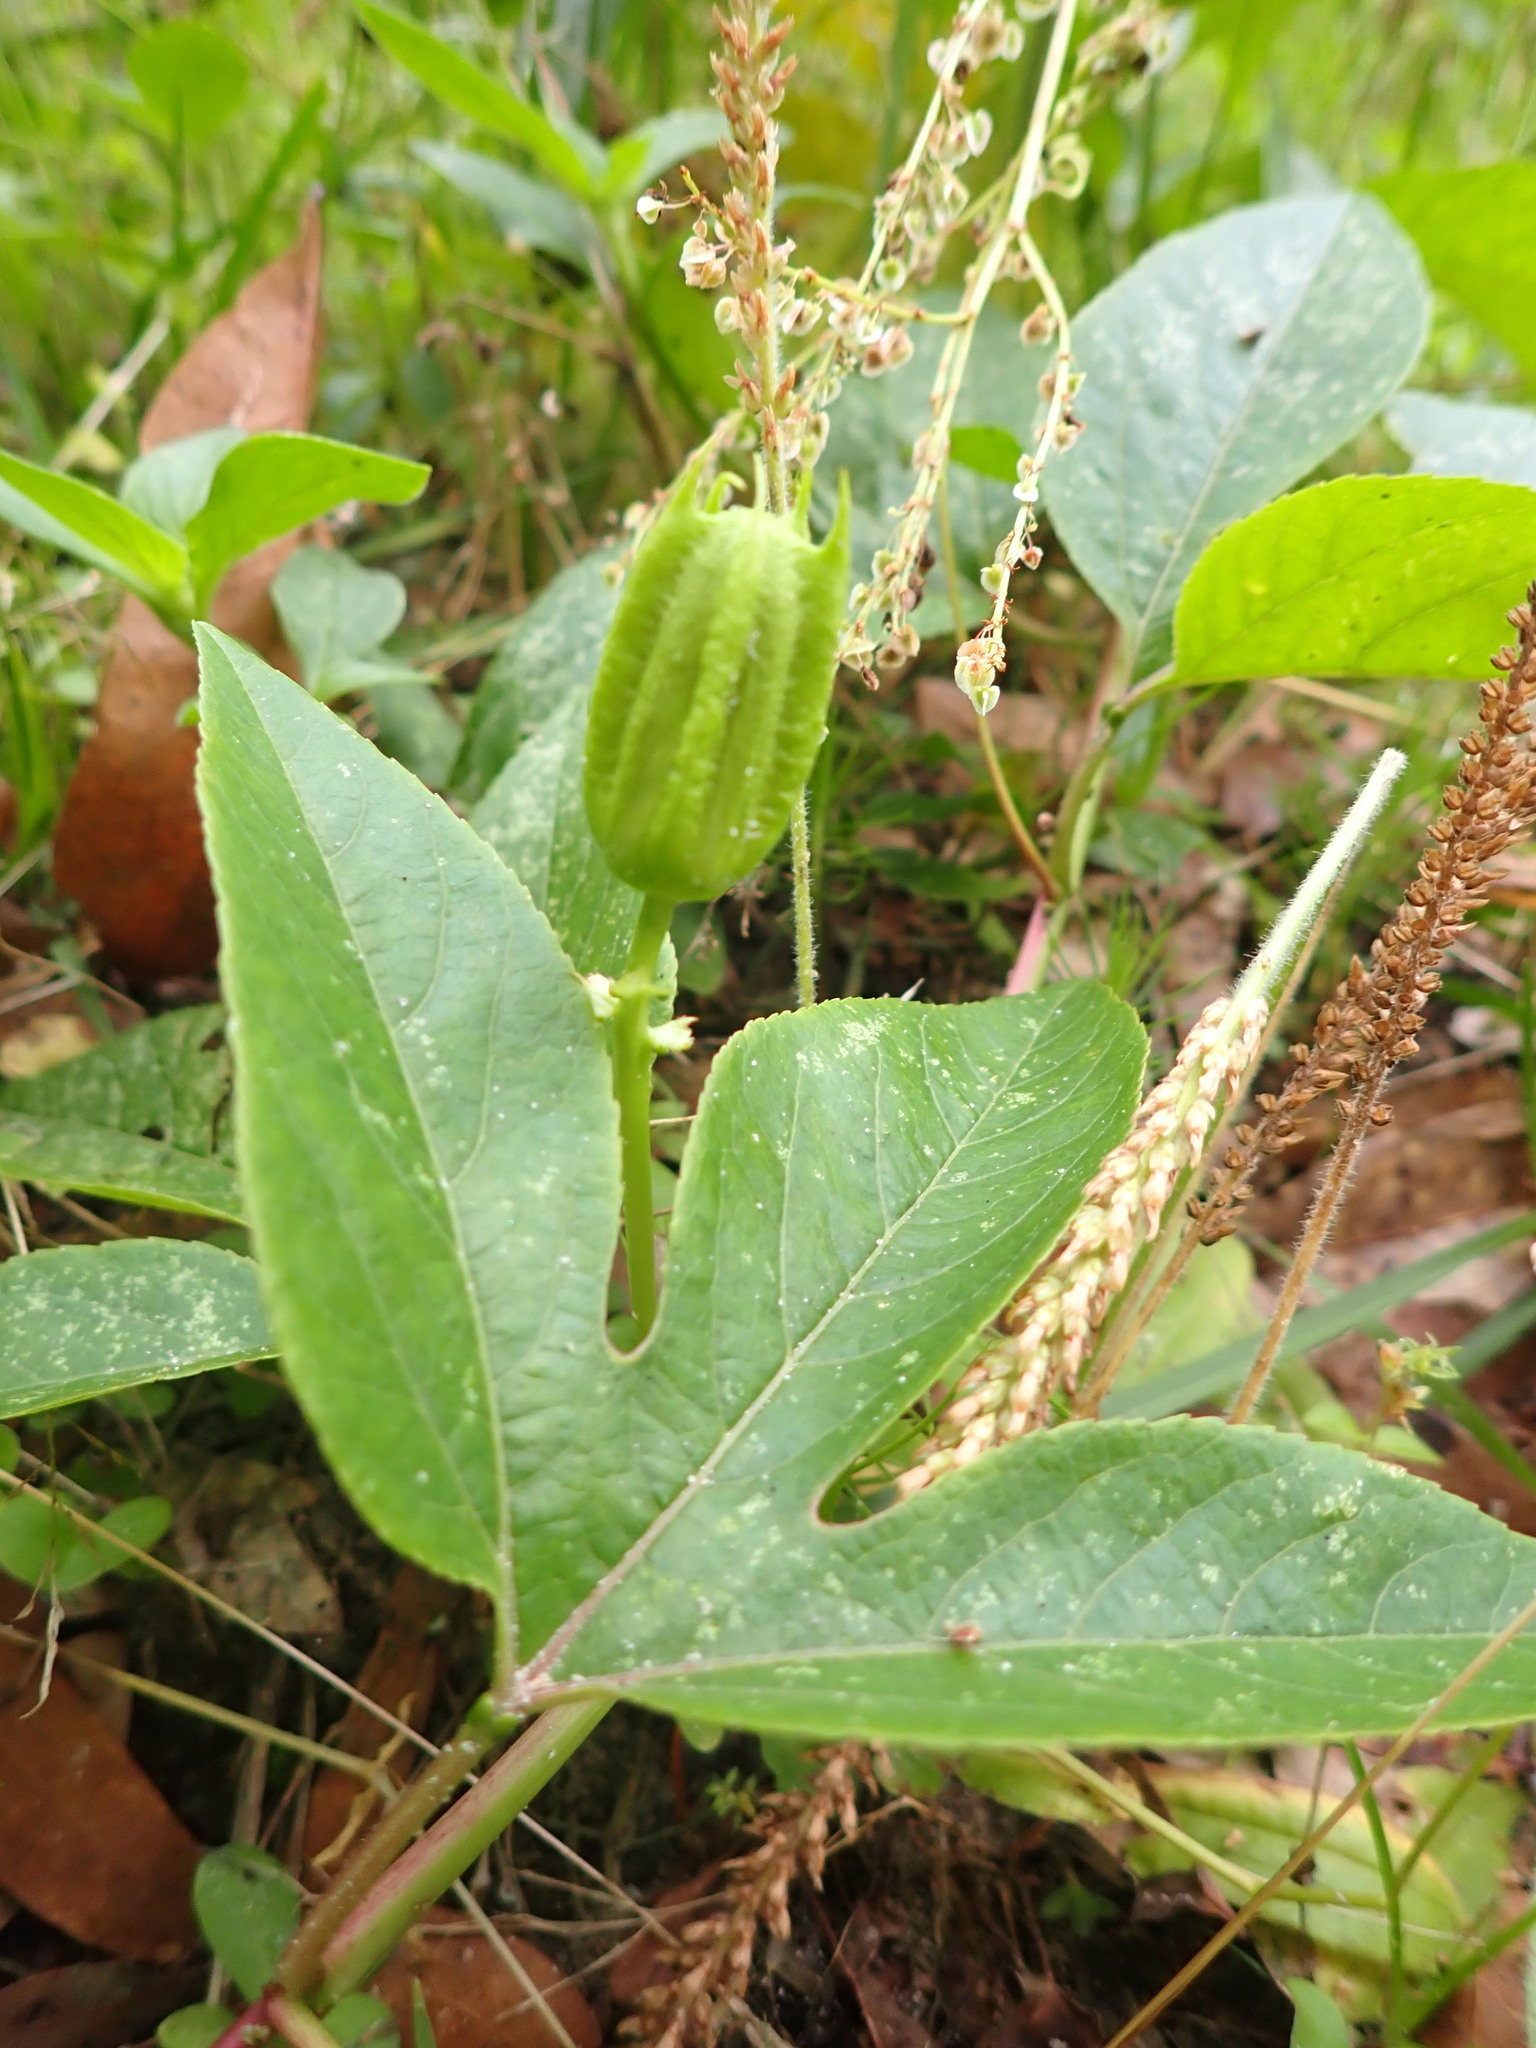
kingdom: Plantae
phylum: Tracheophyta
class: Magnoliopsida
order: Malpighiales
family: Passifloraceae
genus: Passiflora
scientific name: Passiflora incarnata
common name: Apricot-vine
